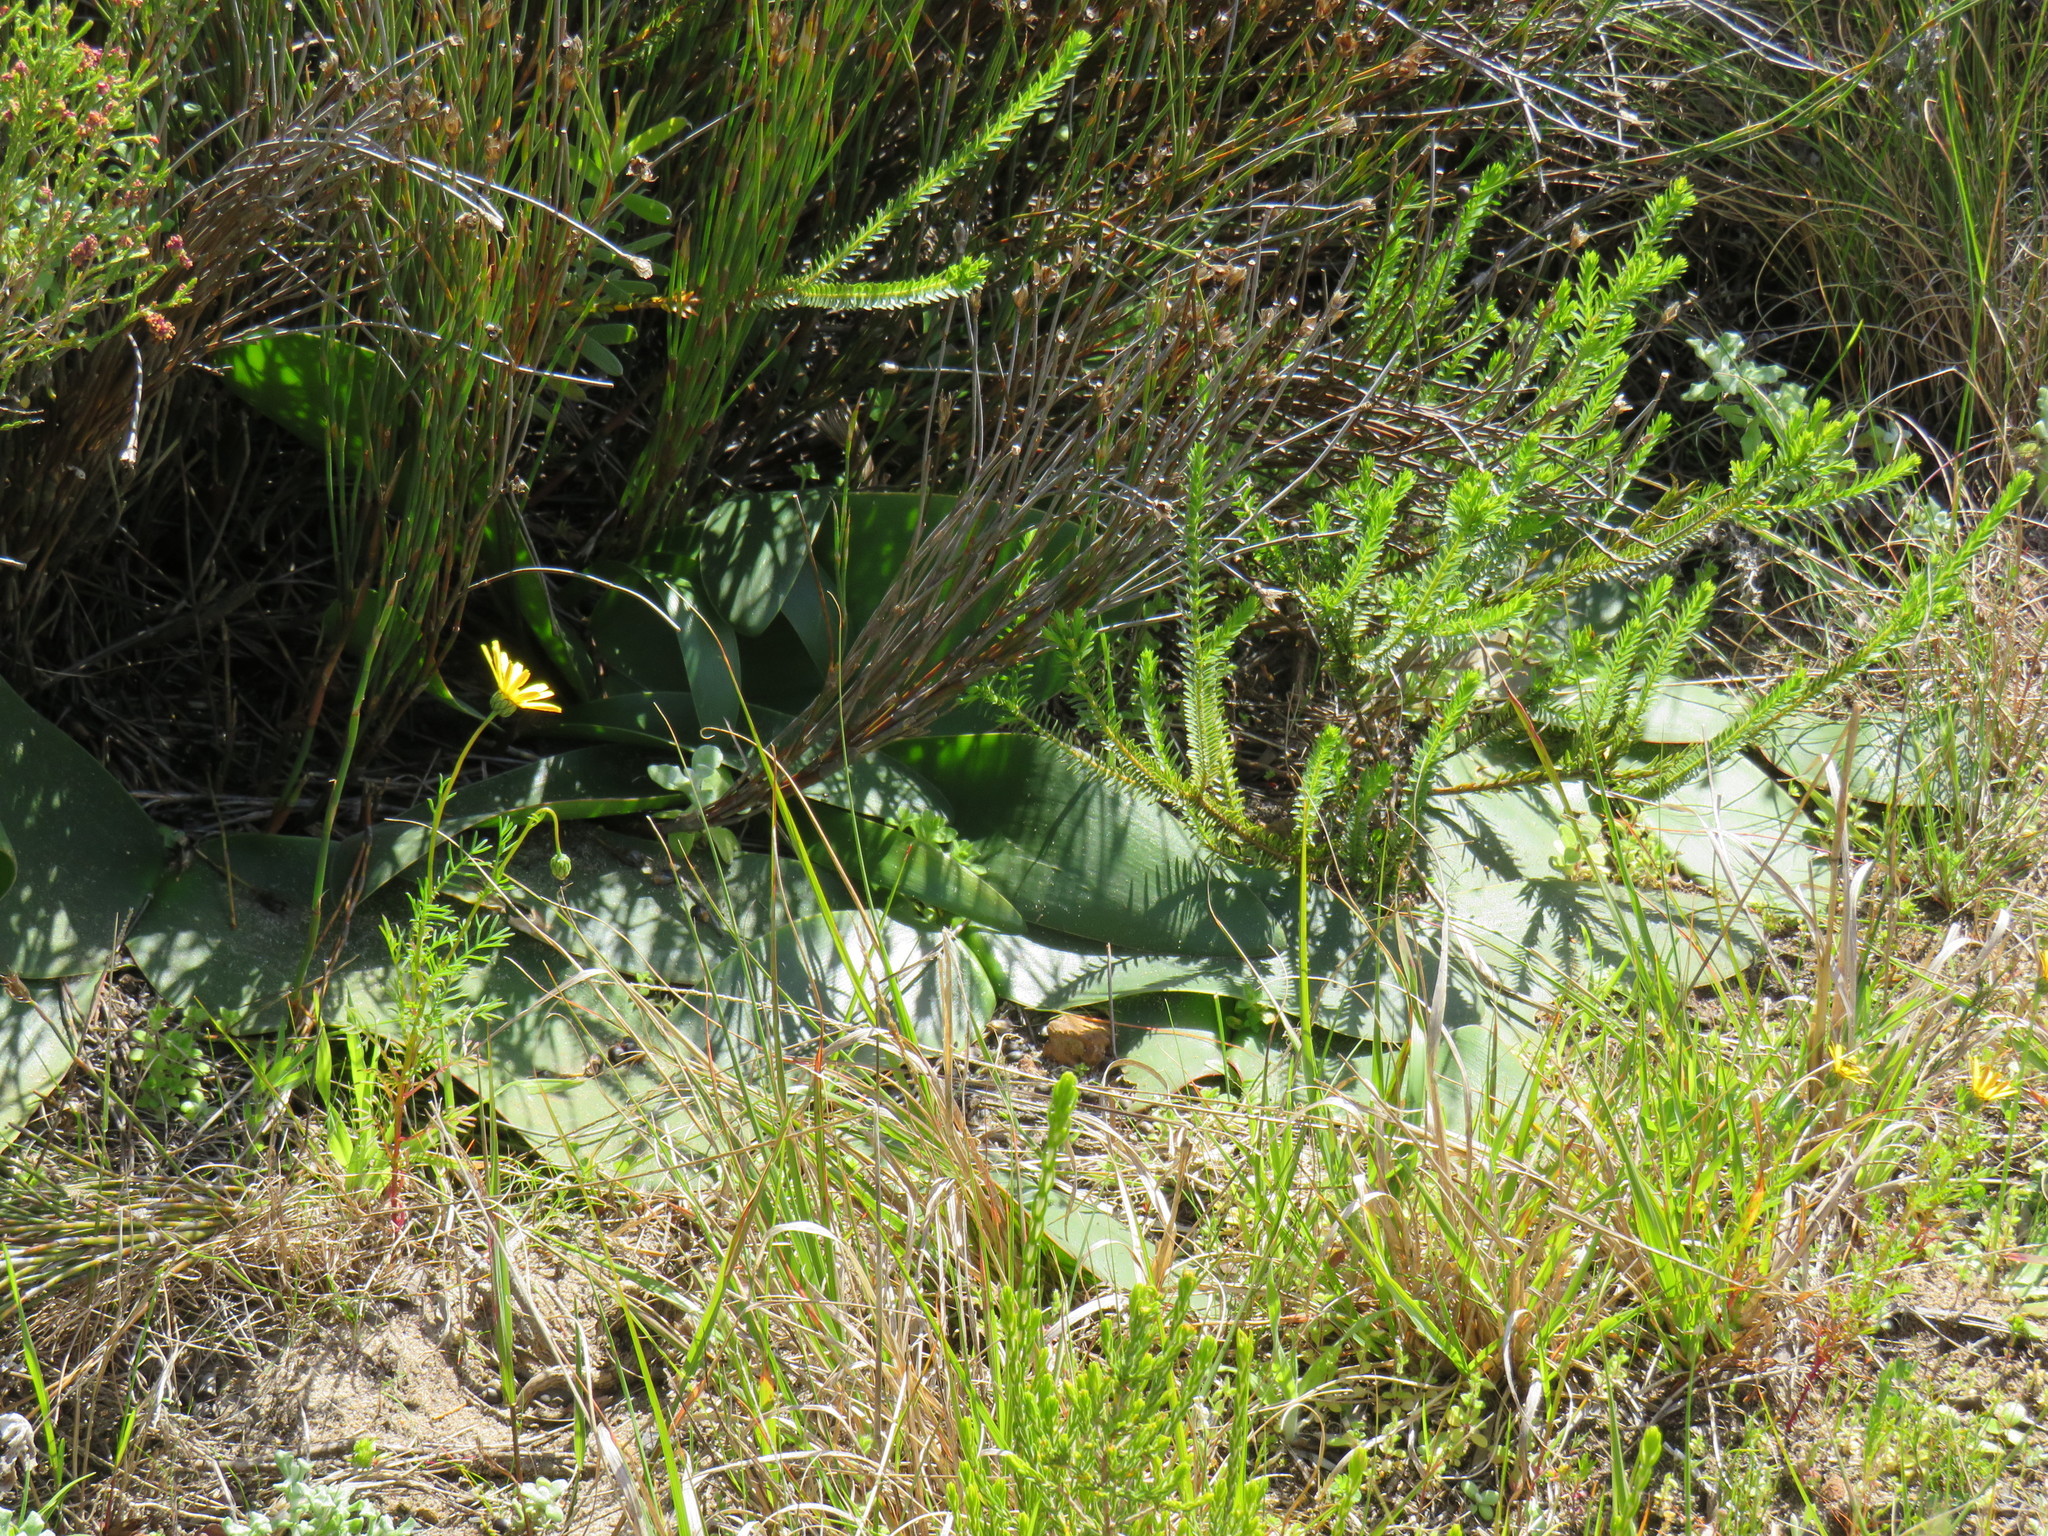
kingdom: Plantae
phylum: Tracheophyta
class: Magnoliopsida
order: Asterales
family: Asteraceae
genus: Ursinia
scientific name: Ursinia anthemoides
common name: Ursinia
